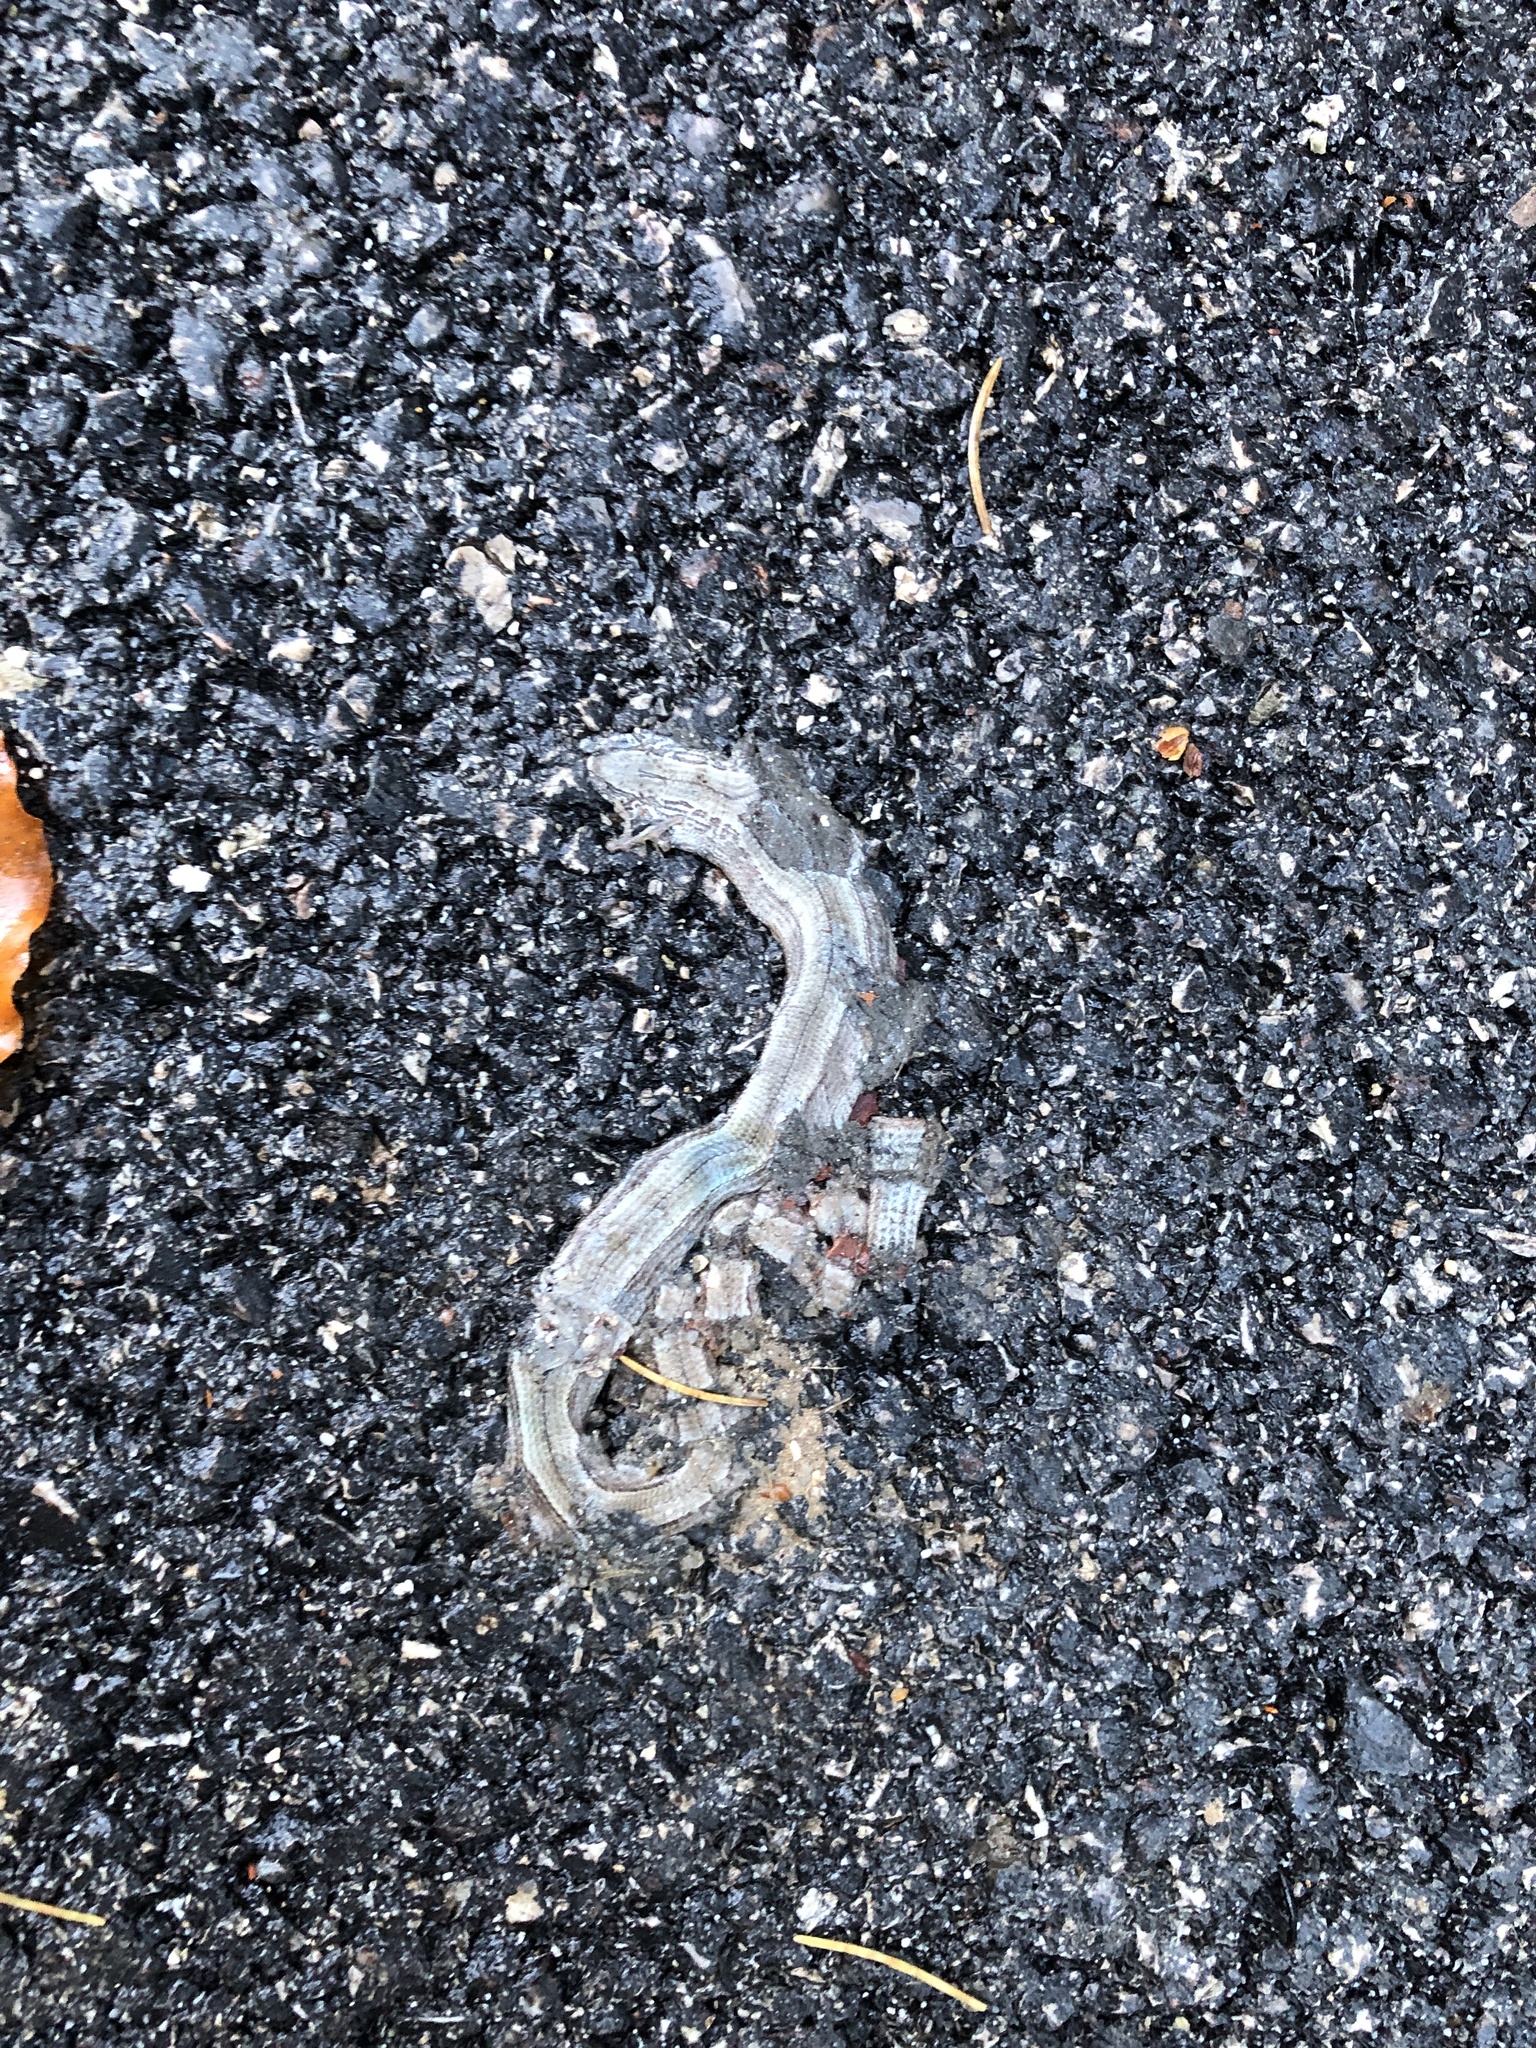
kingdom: Animalia
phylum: Chordata
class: Squamata
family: Anguidae
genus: Anguis
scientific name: Anguis veronensis
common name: Italian slow worm
